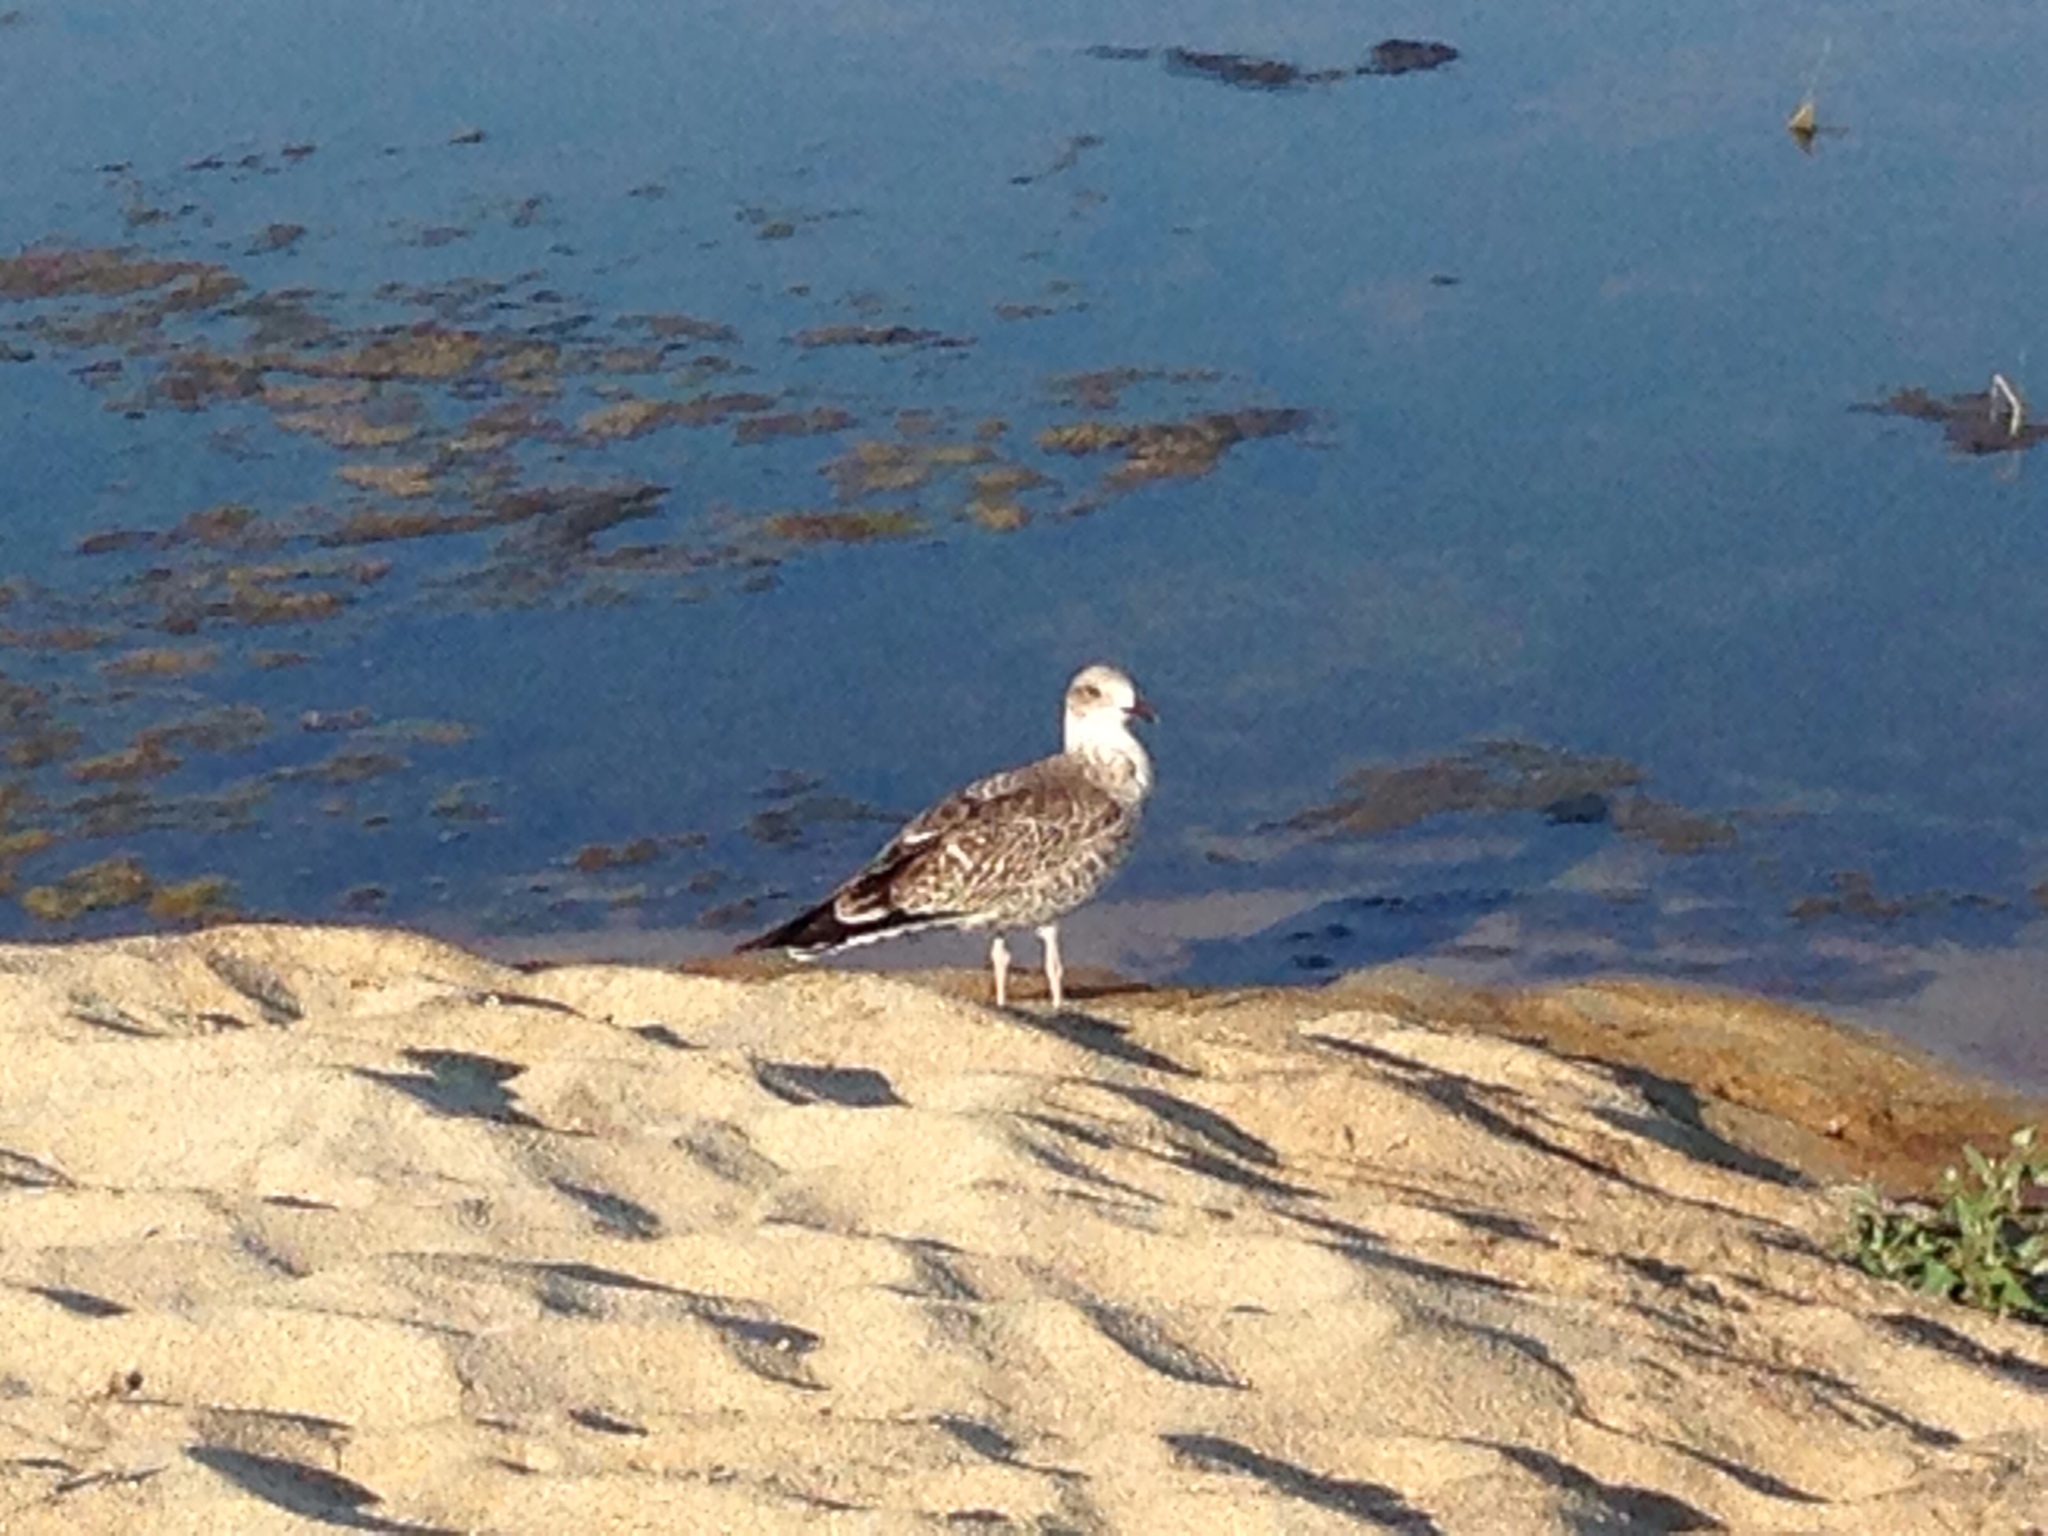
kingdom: Animalia
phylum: Chordata
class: Aves
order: Charadriiformes
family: Laridae
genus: Larus
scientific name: Larus michahellis
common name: Yellow-legged gull
